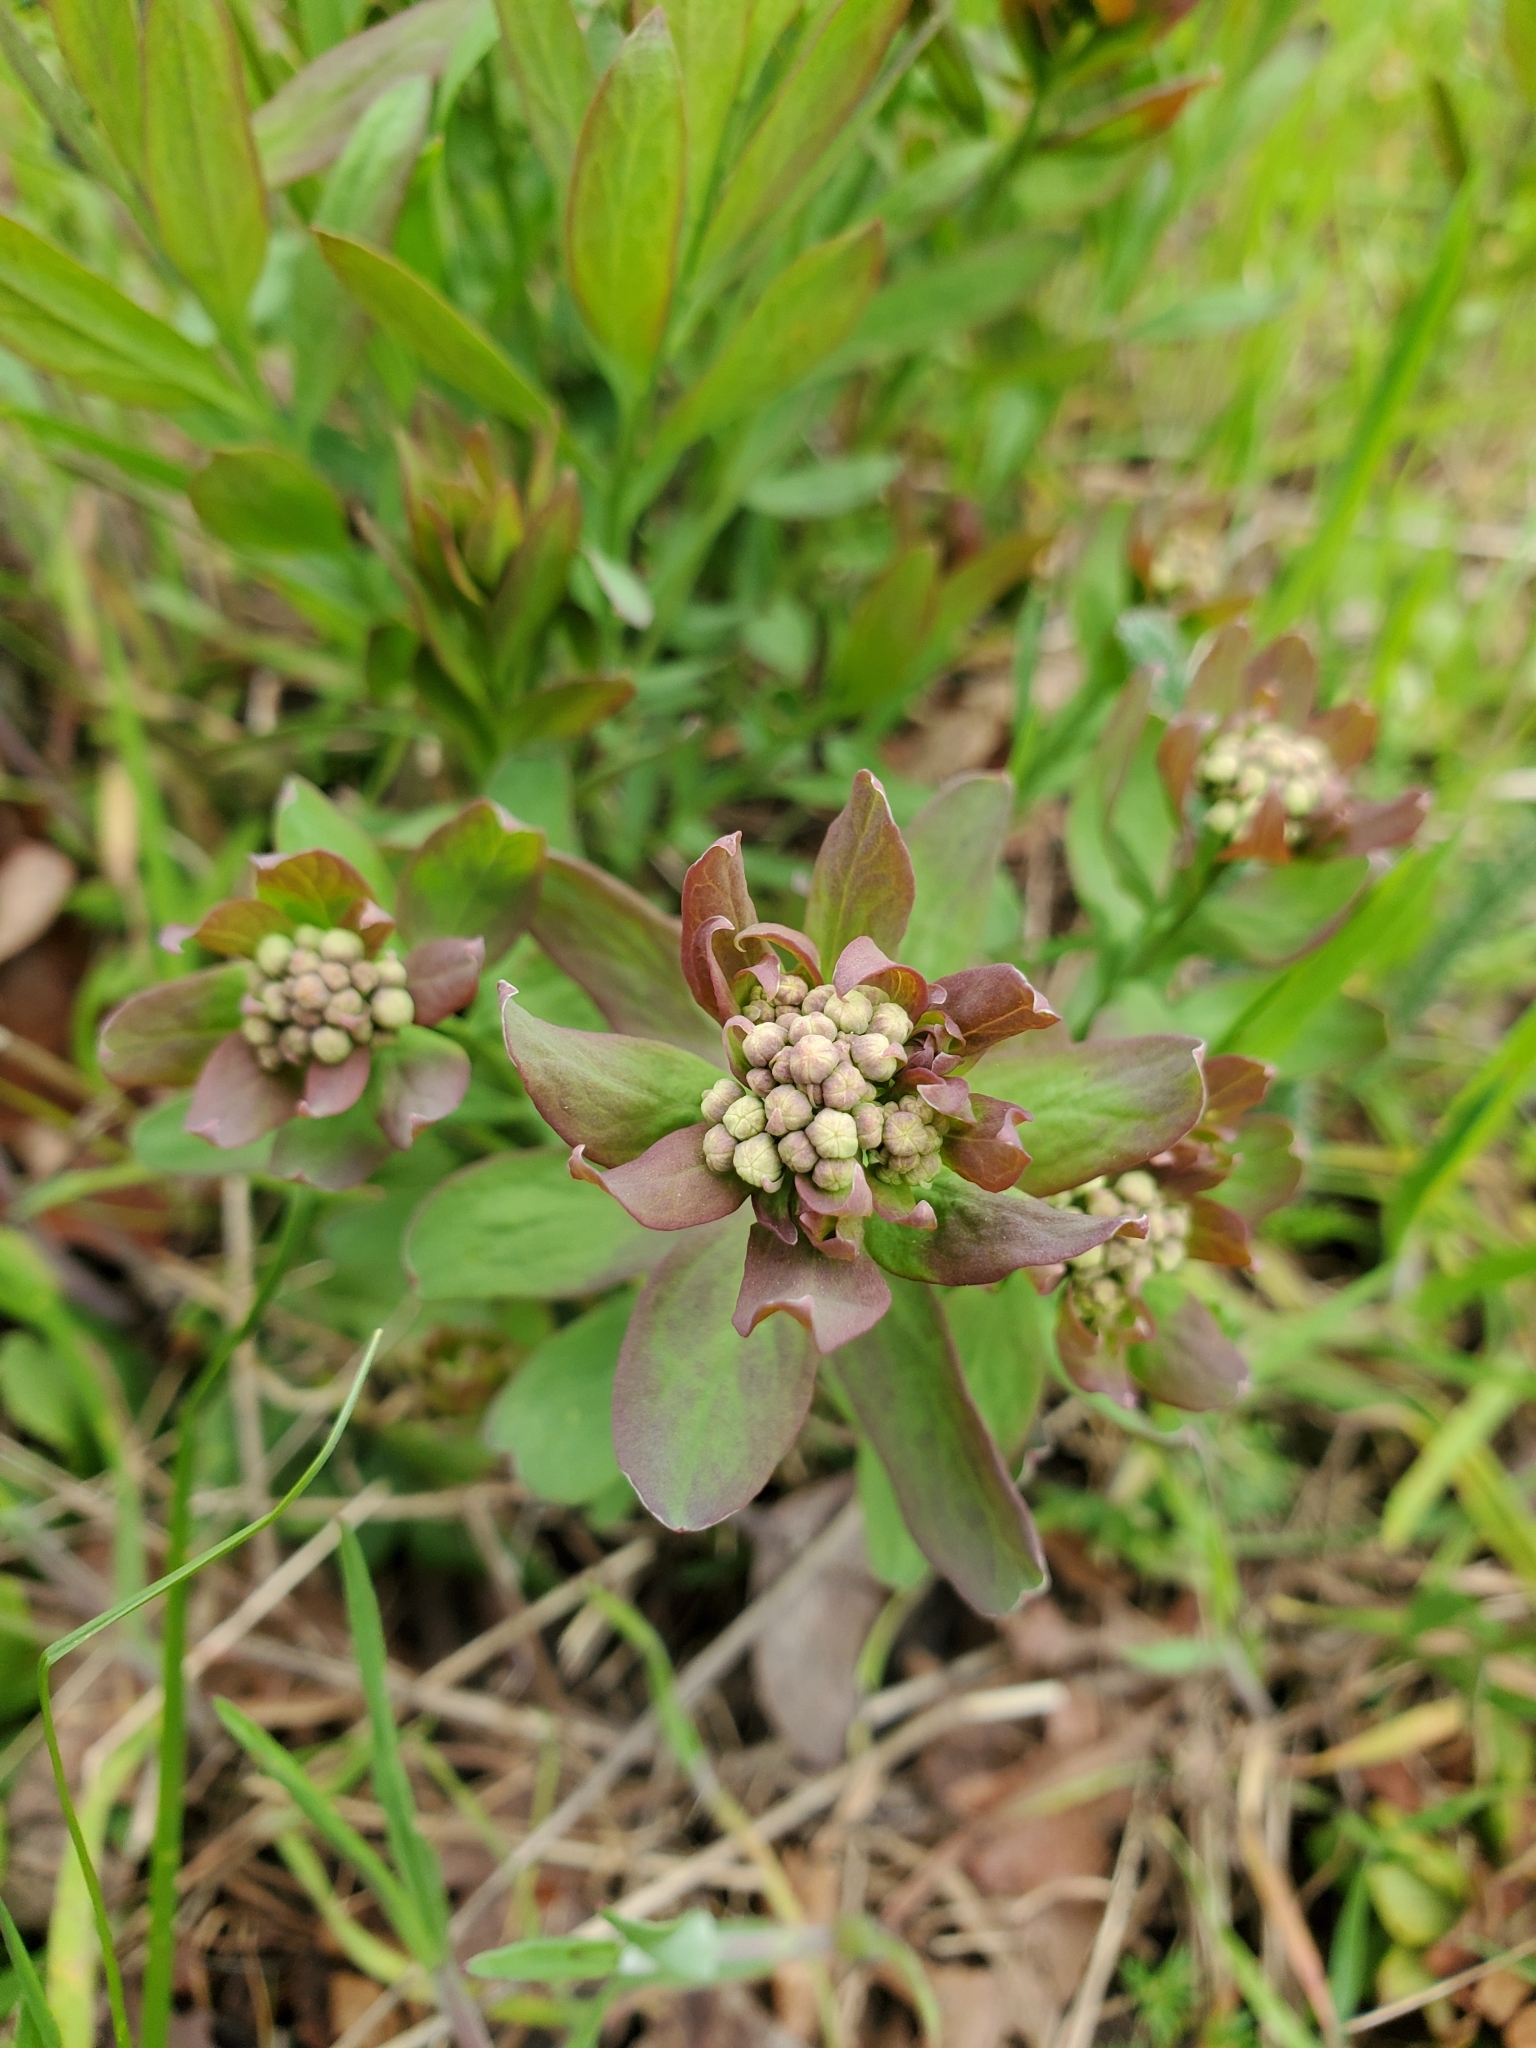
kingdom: Plantae
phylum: Tracheophyta
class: Magnoliopsida
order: Santalales
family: Comandraceae
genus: Comandra
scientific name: Comandra umbellata
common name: Bastard toadflax
